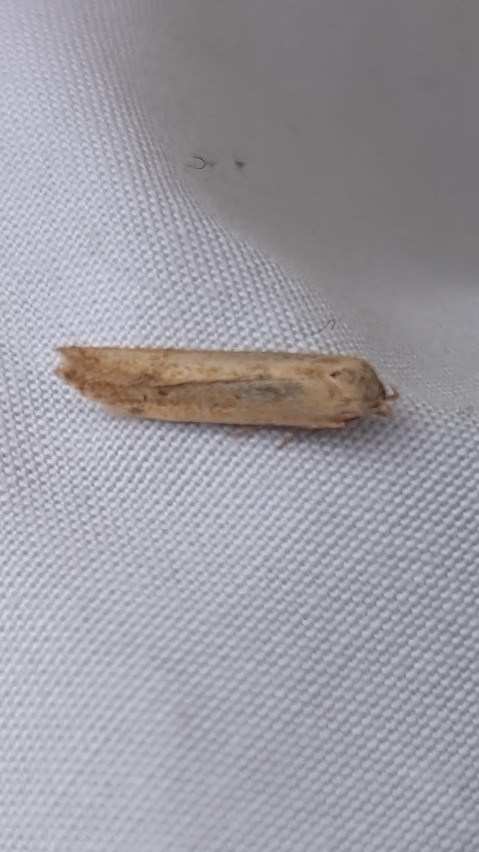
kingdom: Animalia
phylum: Arthropoda
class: Insecta
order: Lepidoptera
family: Blastobasidae
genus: Blastobasis
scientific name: Blastobasis lacticolella
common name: London dowd
